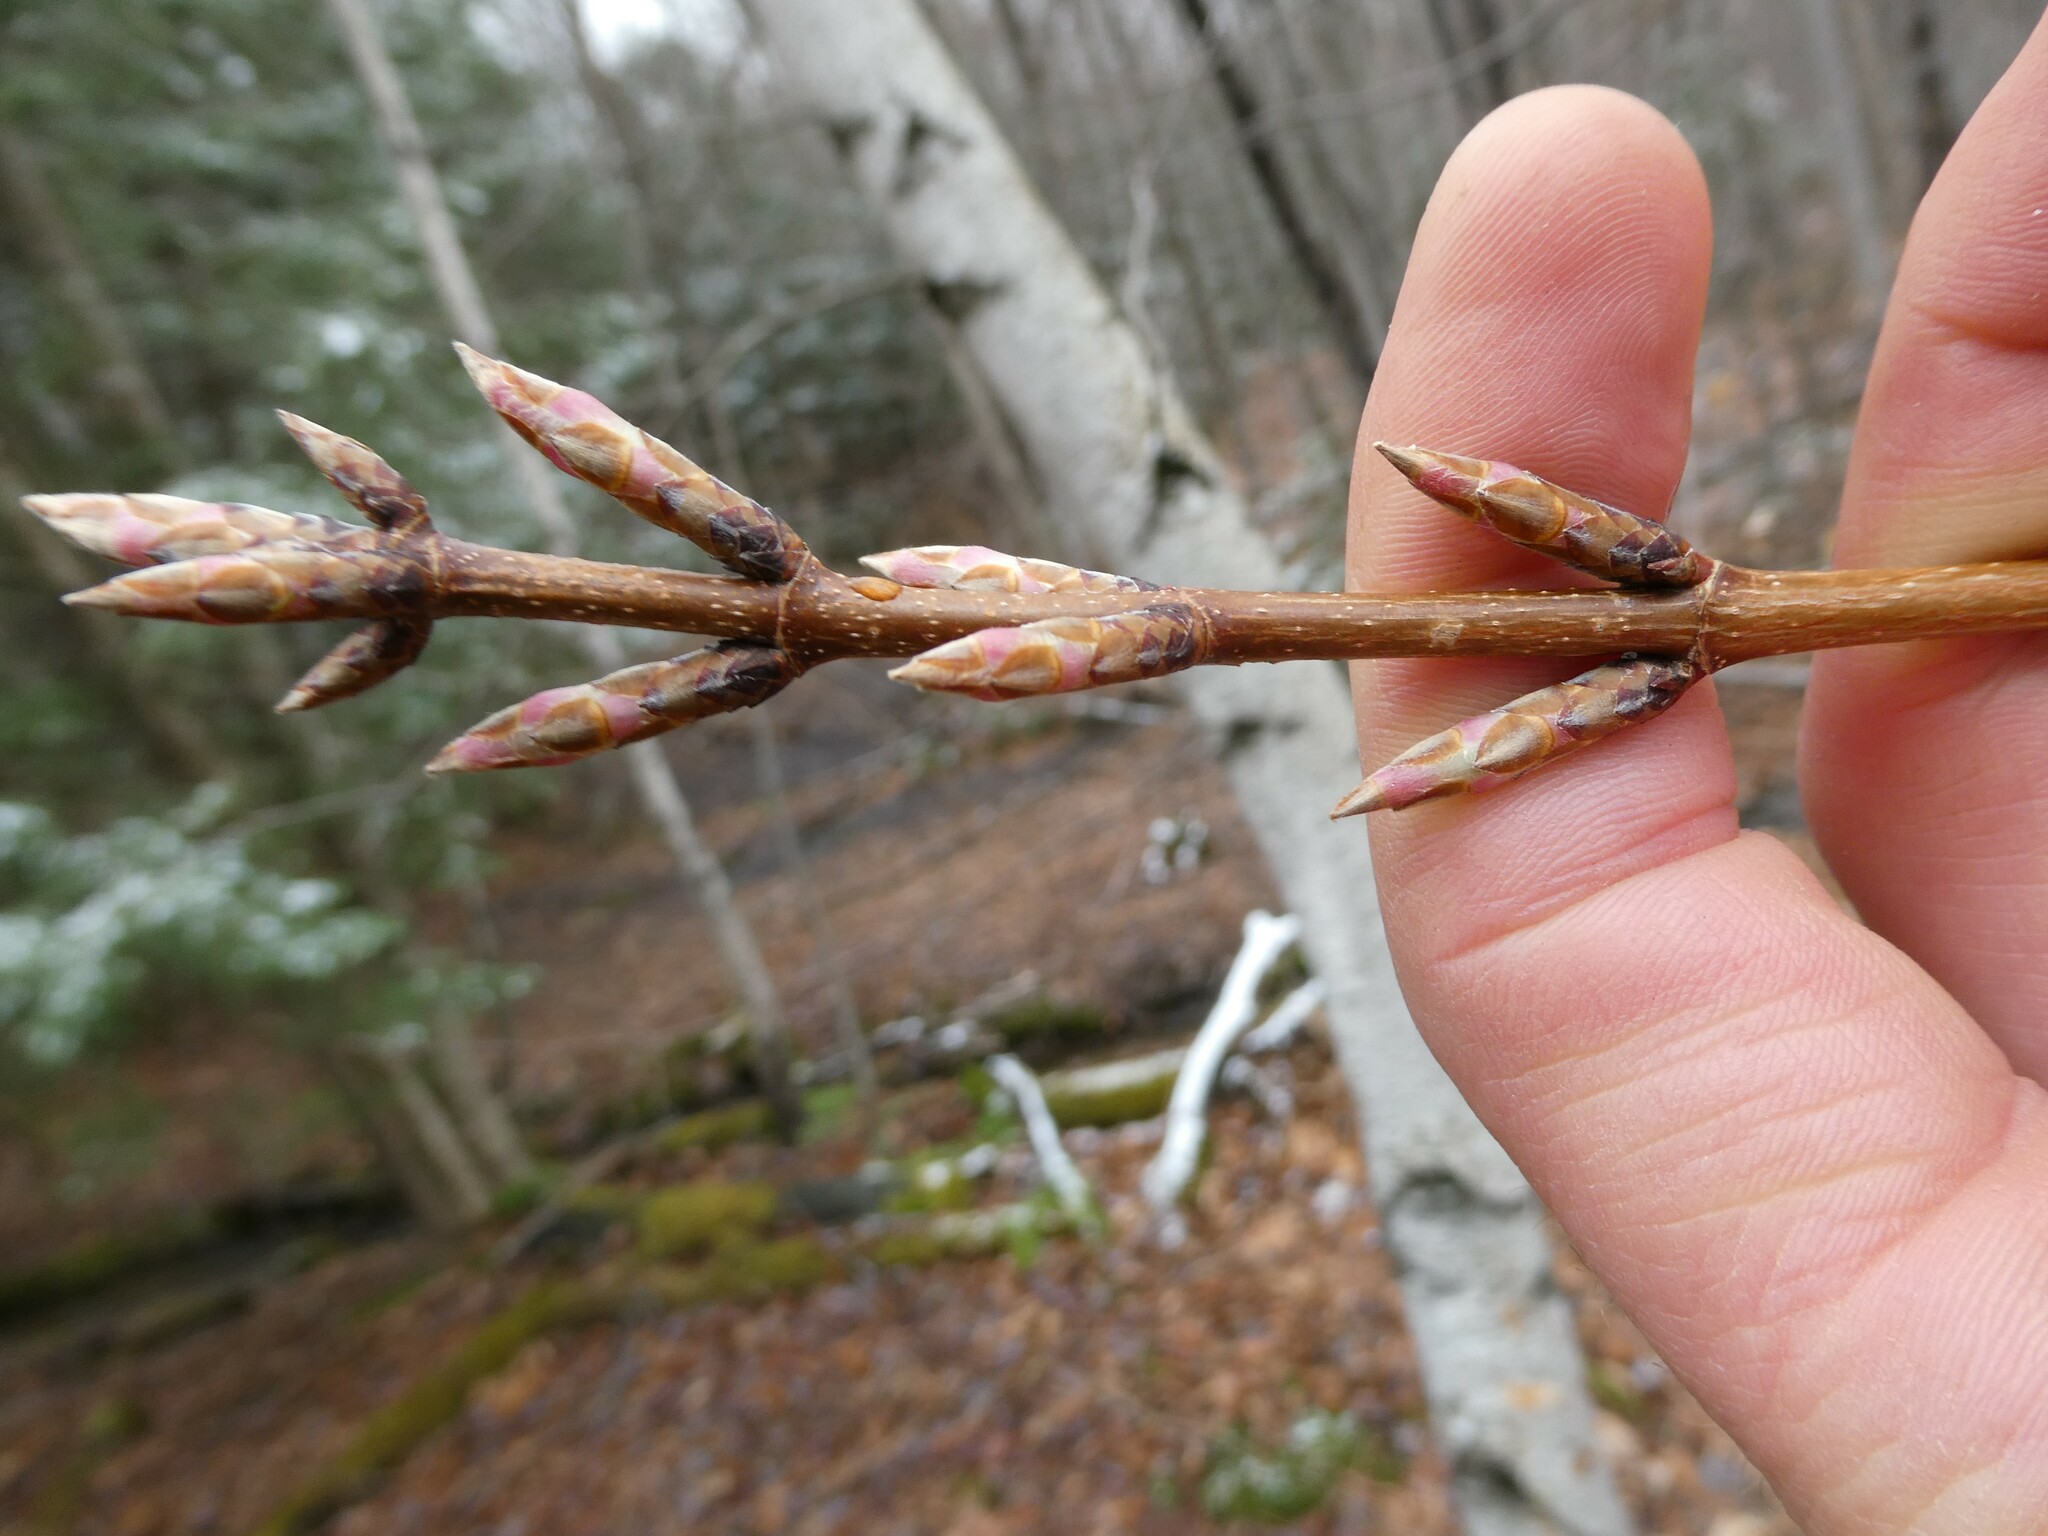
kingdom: Plantae
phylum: Tracheophyta
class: Magnoliopsida
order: Sapindales
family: Sapindaceae
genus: Acer
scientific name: Acer saccharum
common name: Sugar maple
